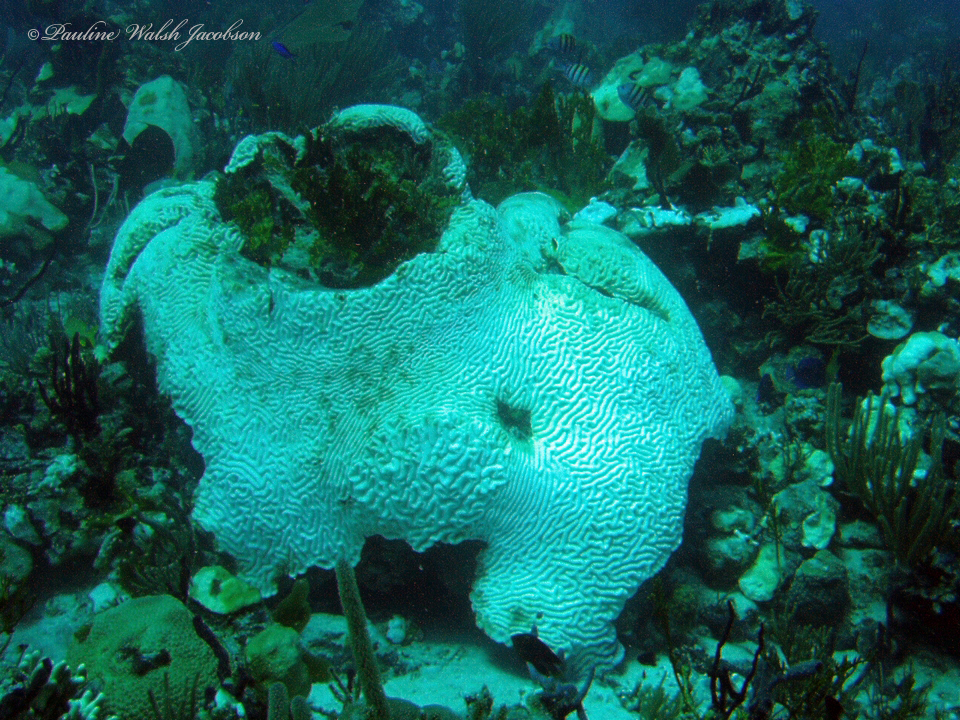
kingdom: Animalia
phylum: Cnidaria
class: Anthozoa
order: Scleractinia
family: Faviidae
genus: Colpophyllia
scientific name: Colpophyllia natans
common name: Boulder brain coral
